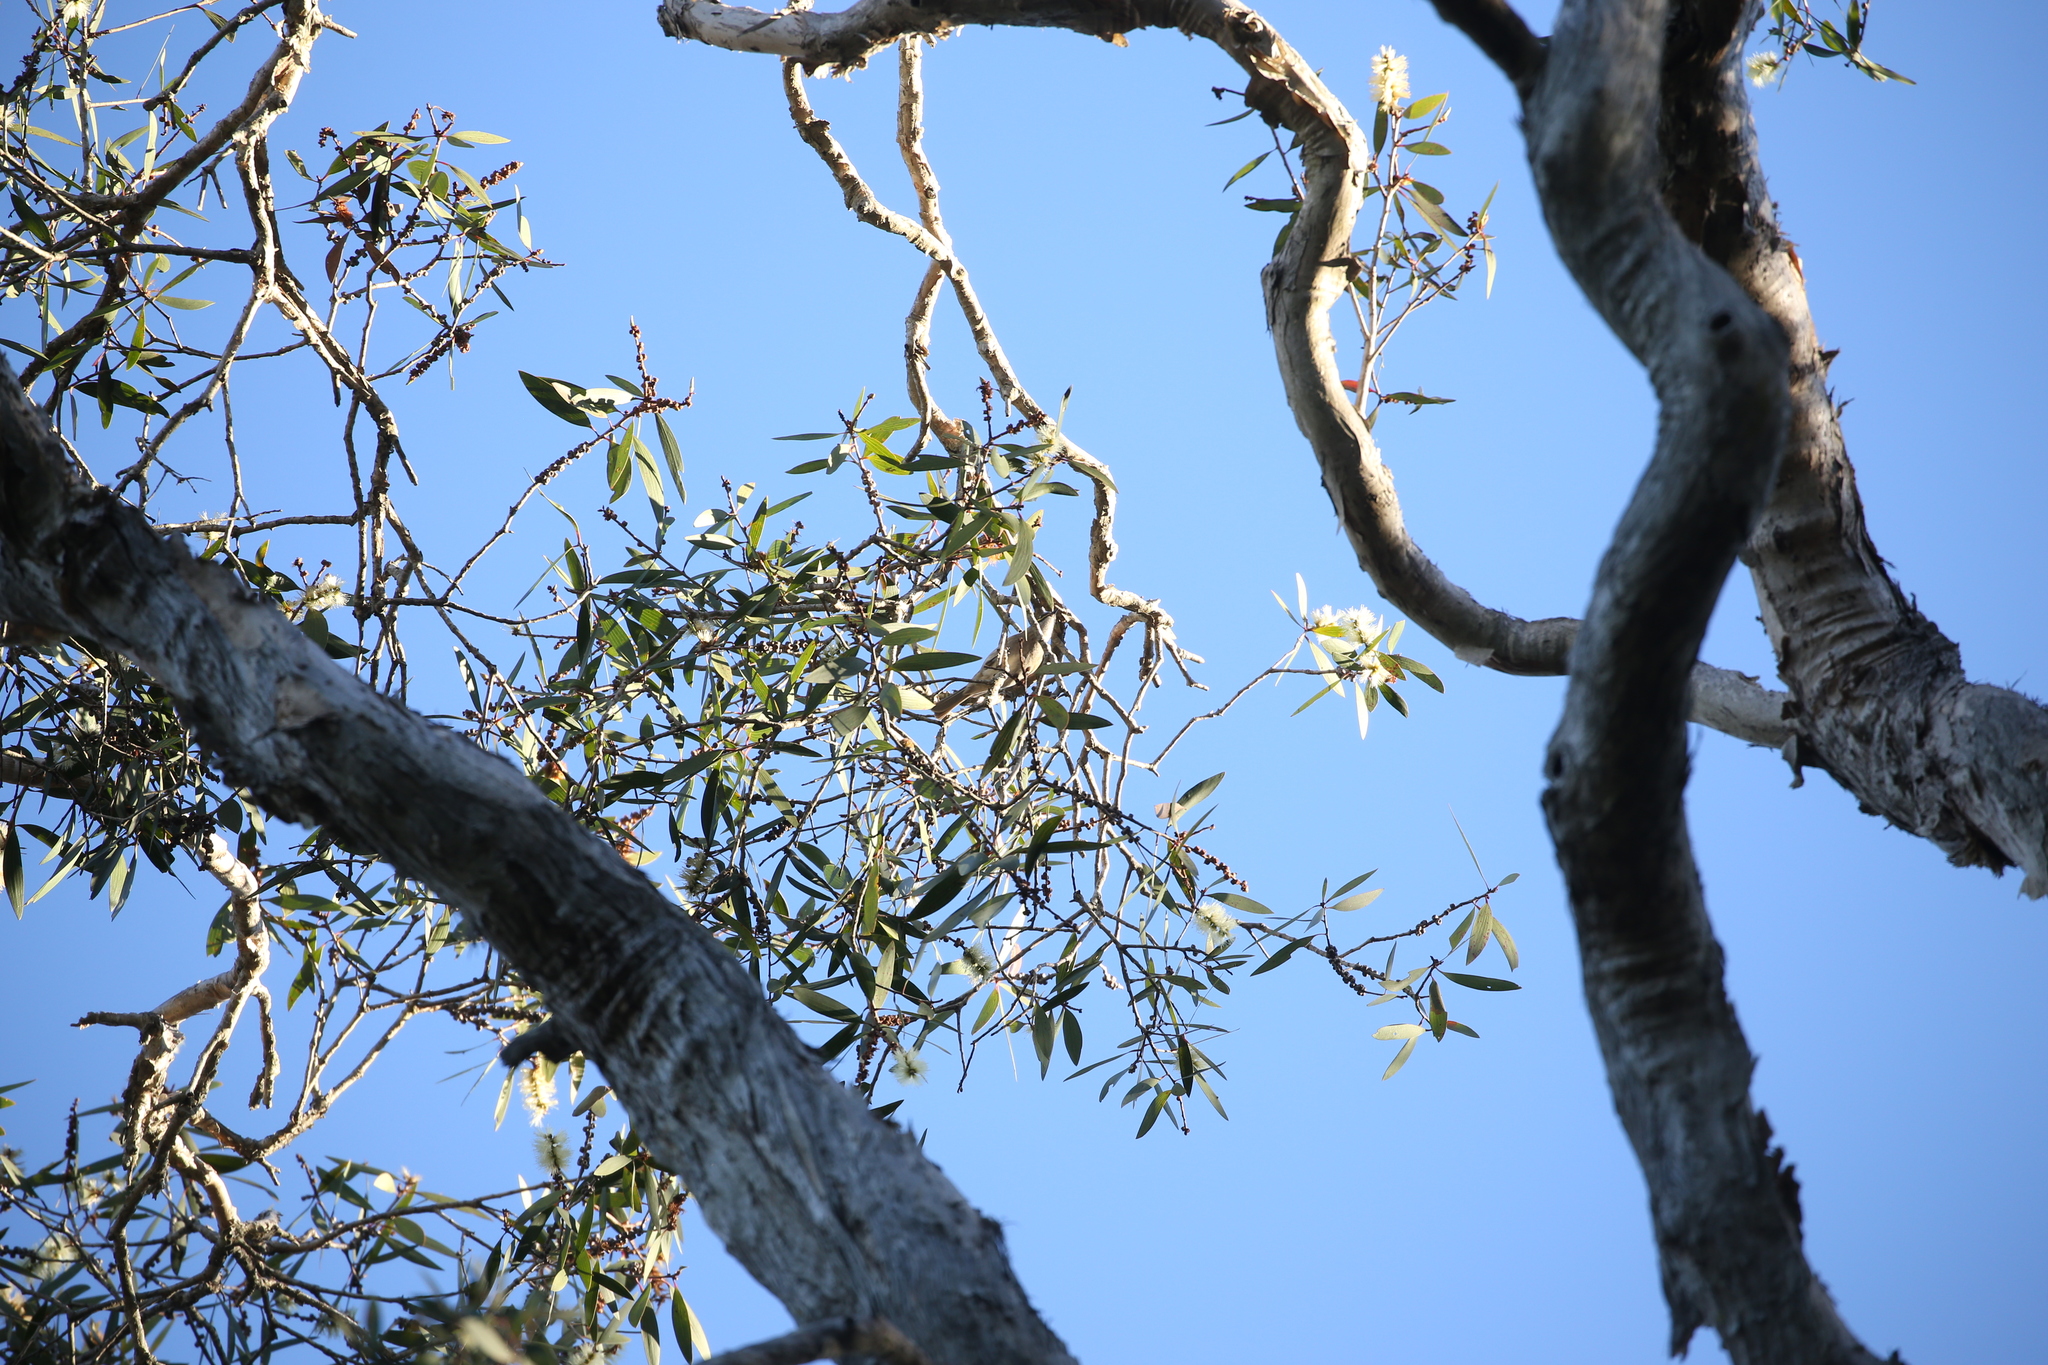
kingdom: Animalia
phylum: Chordata
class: Aves
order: Passeriformes
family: Meliphagidae
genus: Caligavis
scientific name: Caligavis chrysops
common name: Yellow-faced honeyeater
